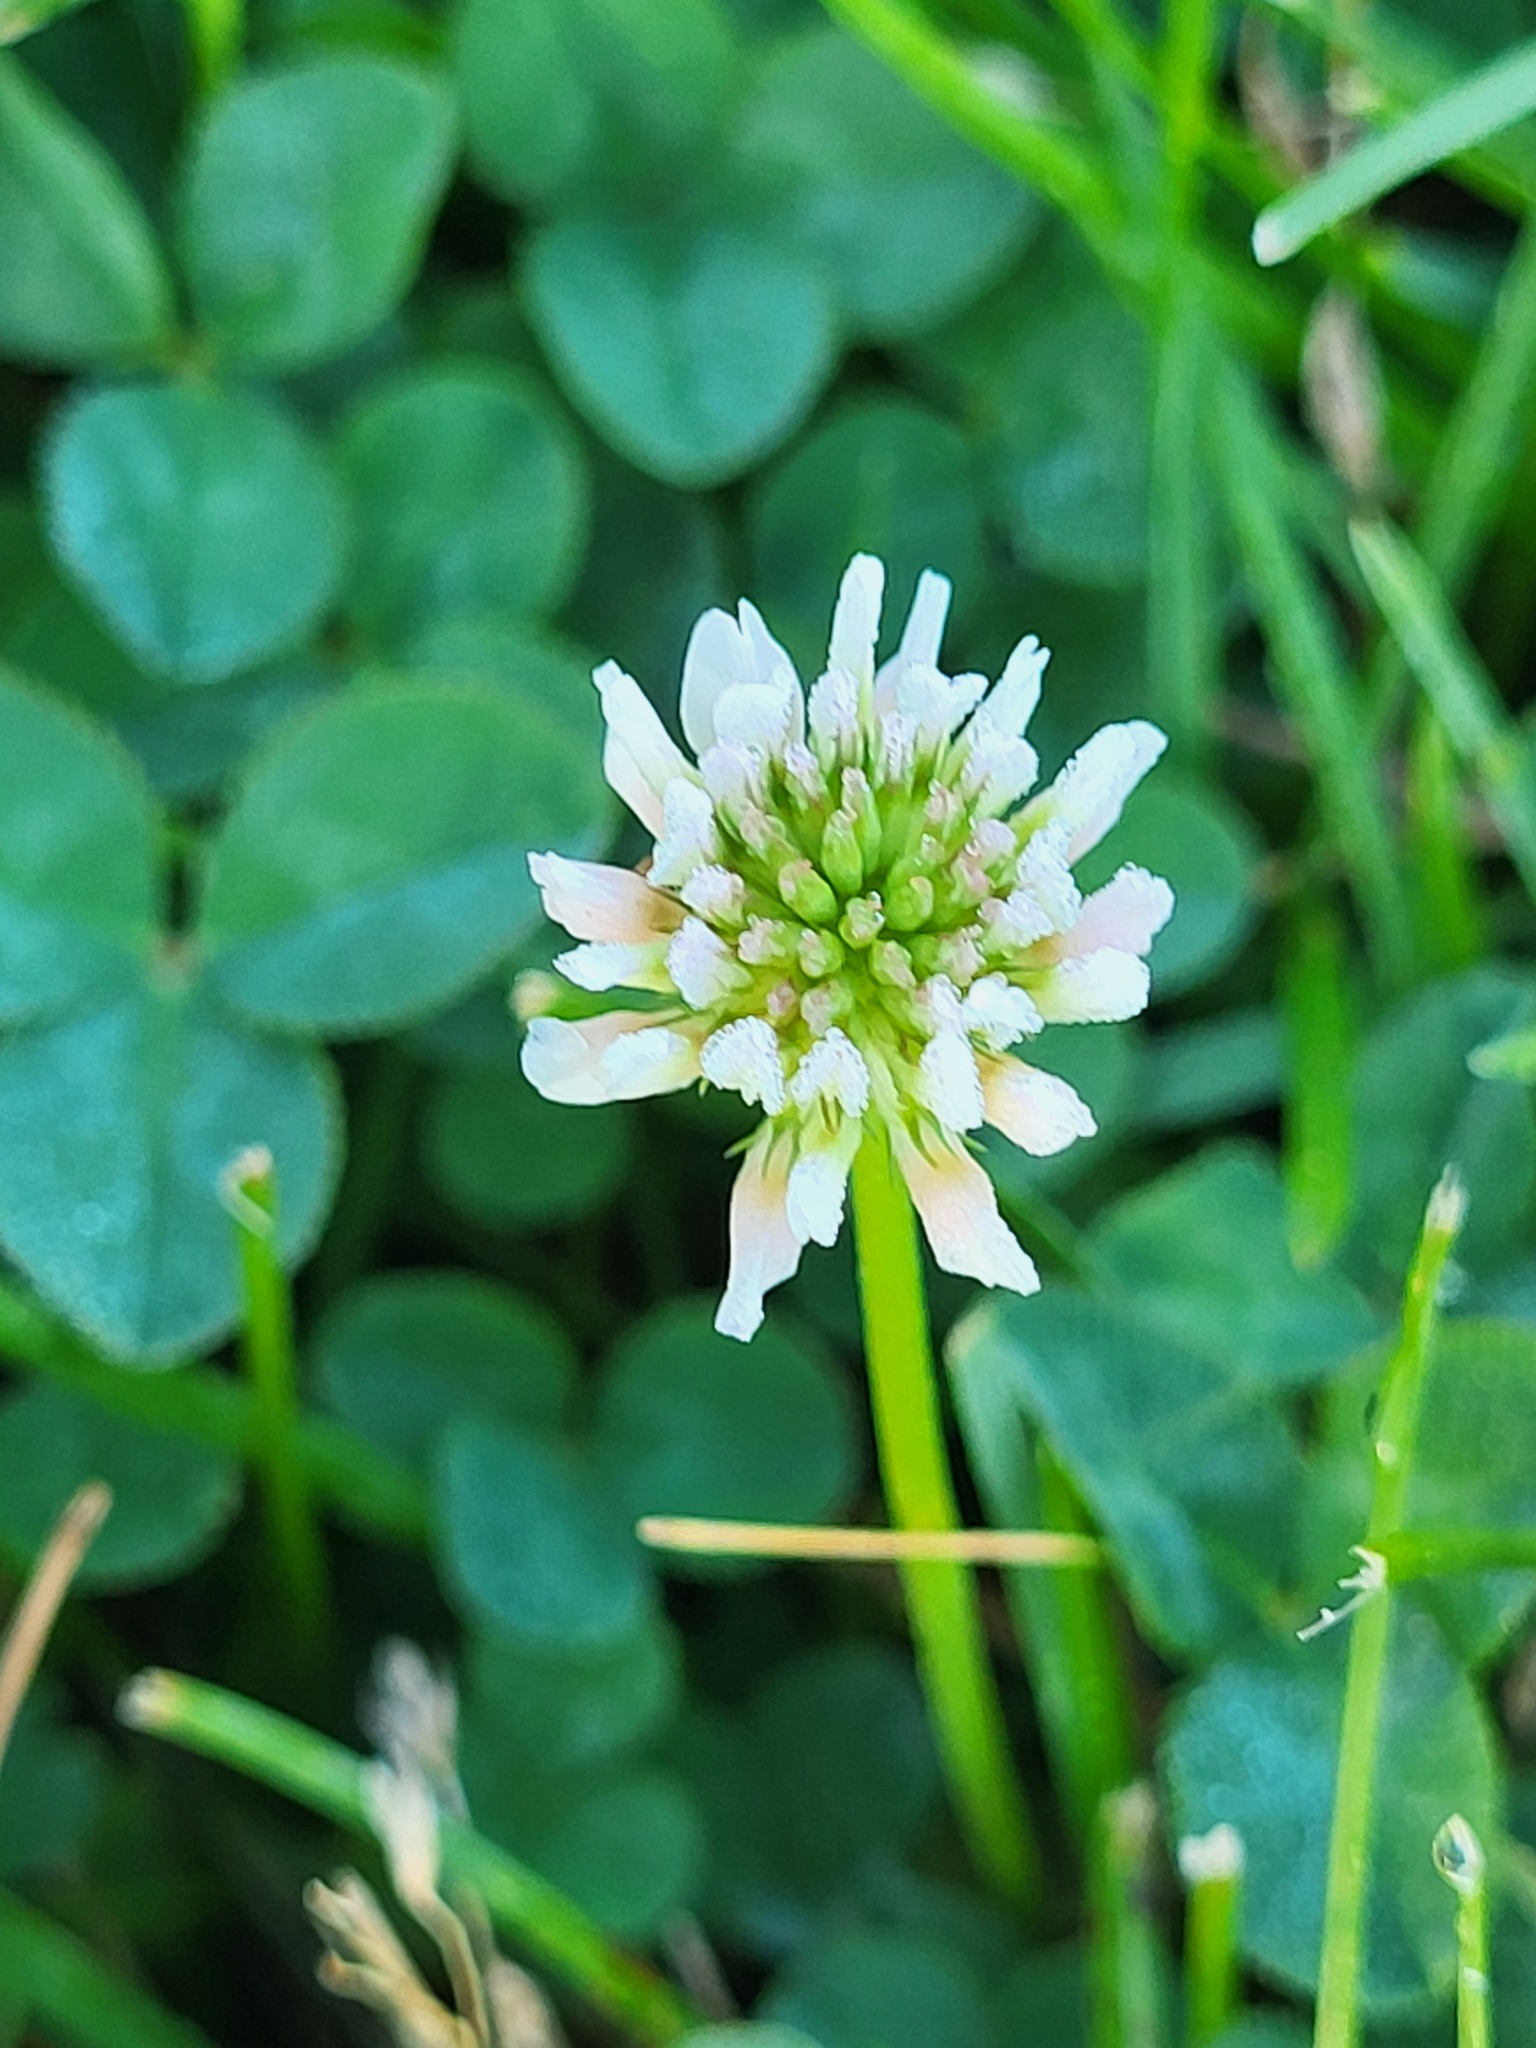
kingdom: Plantae
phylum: Tracheophyta
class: Magnoliopsida
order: Fabales
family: Fabaceae
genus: Trifolium
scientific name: Trifolium repens
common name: White clover
